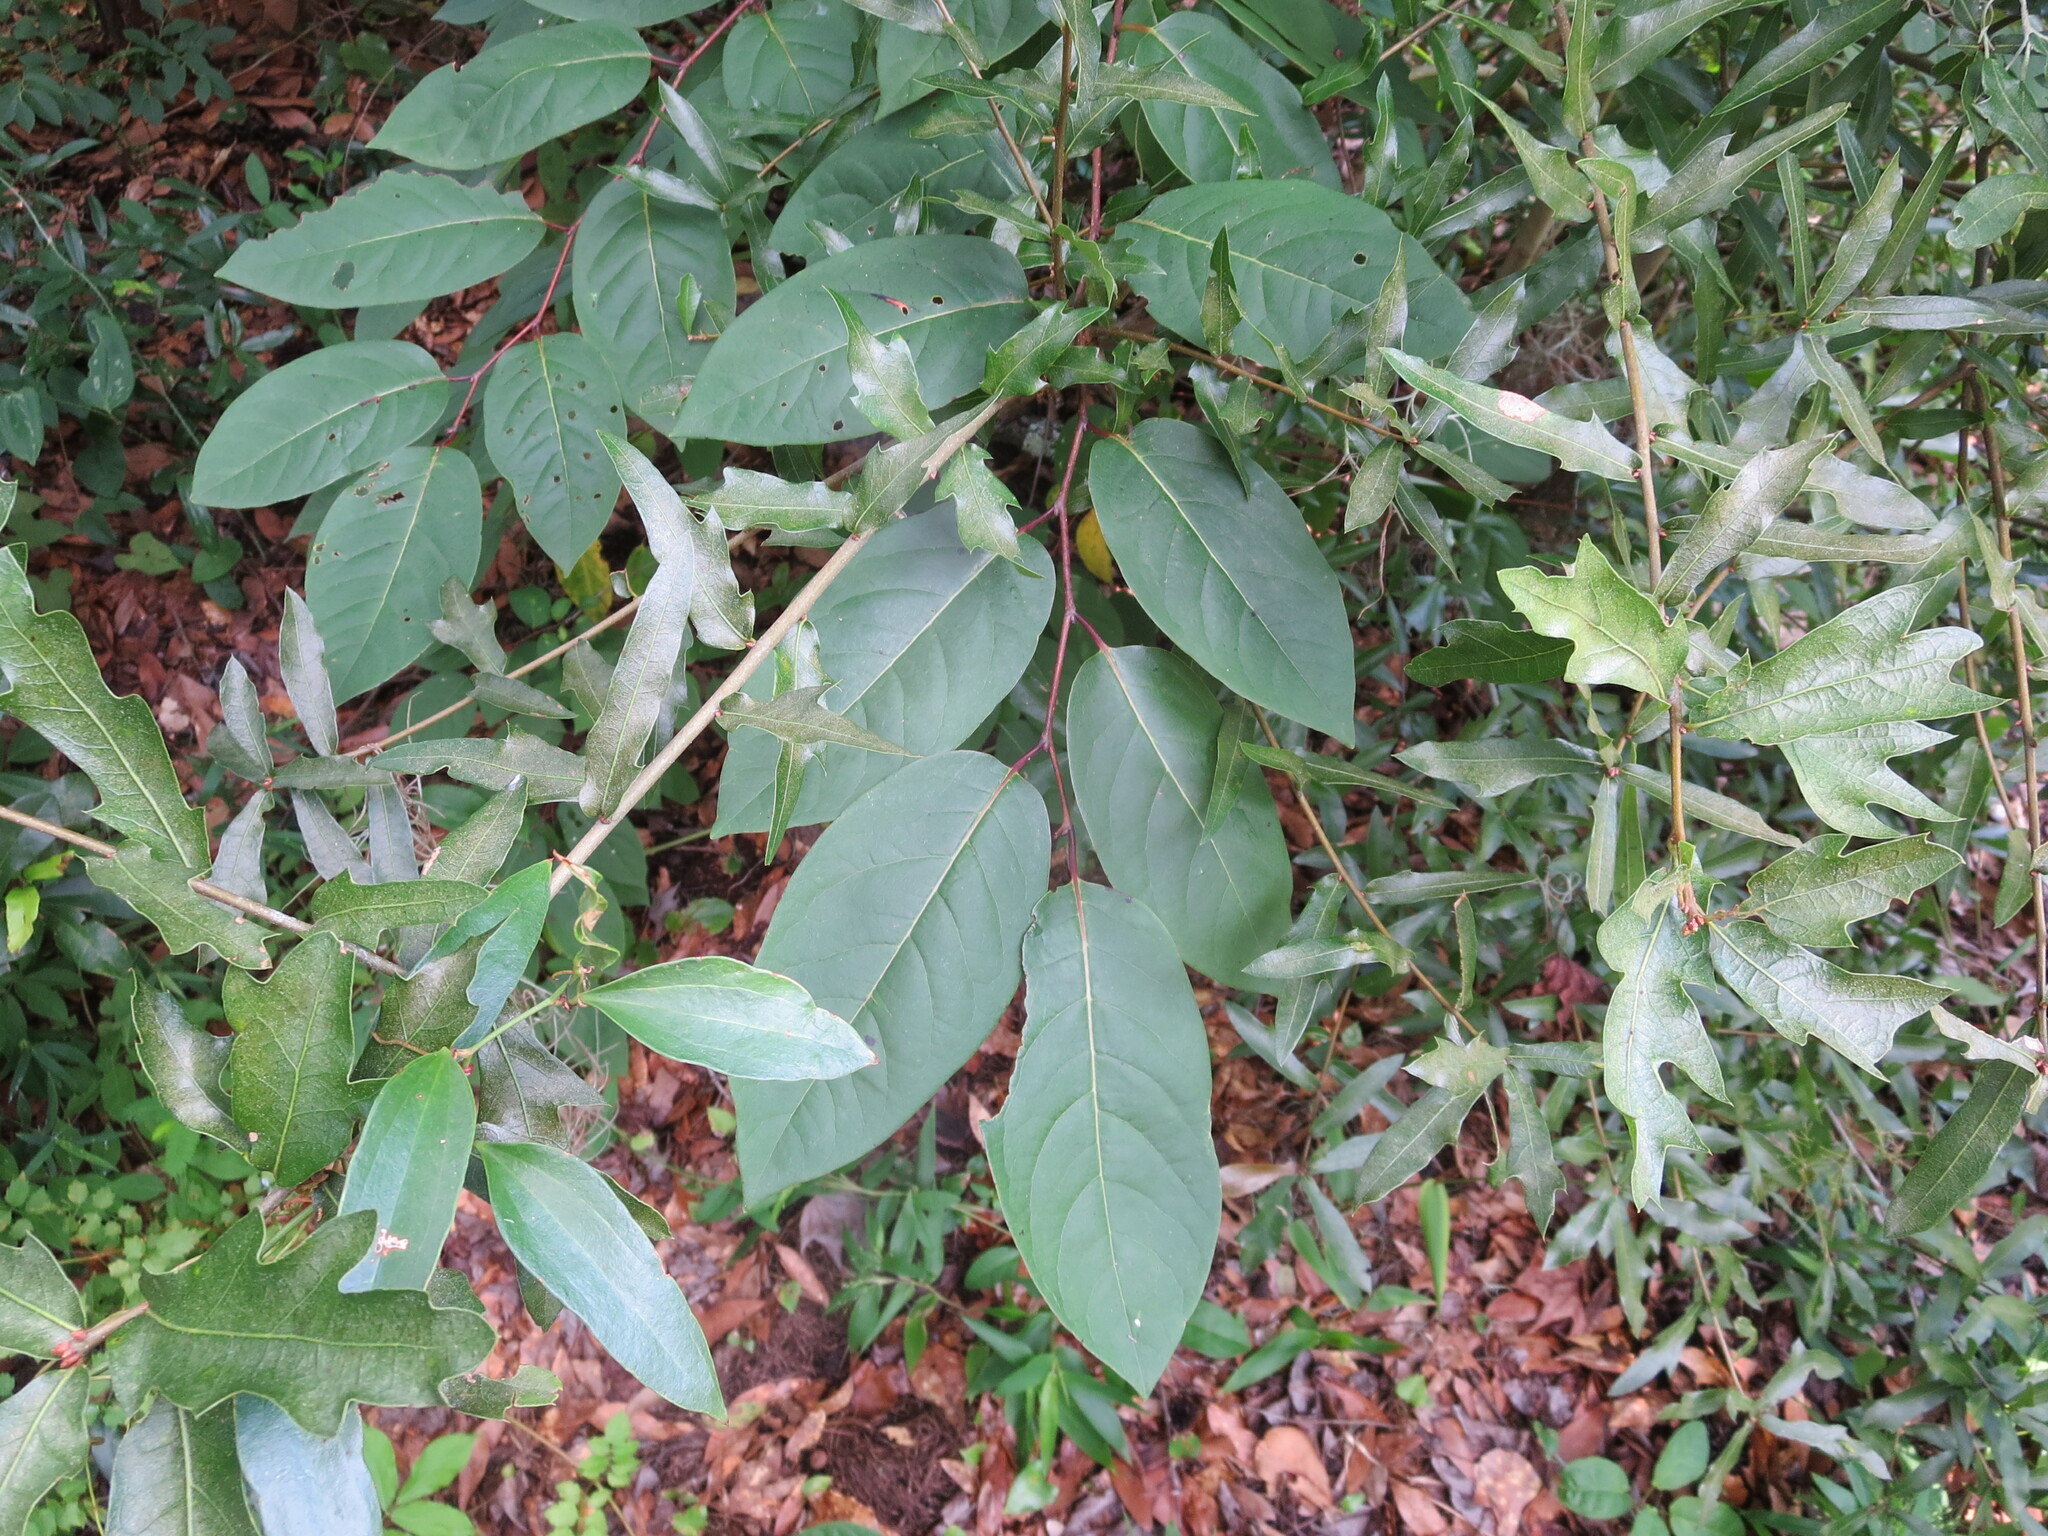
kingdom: Plantae
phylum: Tracheophyta
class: Magnoliopsida
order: Ericales
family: Ebenaceae
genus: Diospyros
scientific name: Diospyros virginiana
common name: Persimmon
